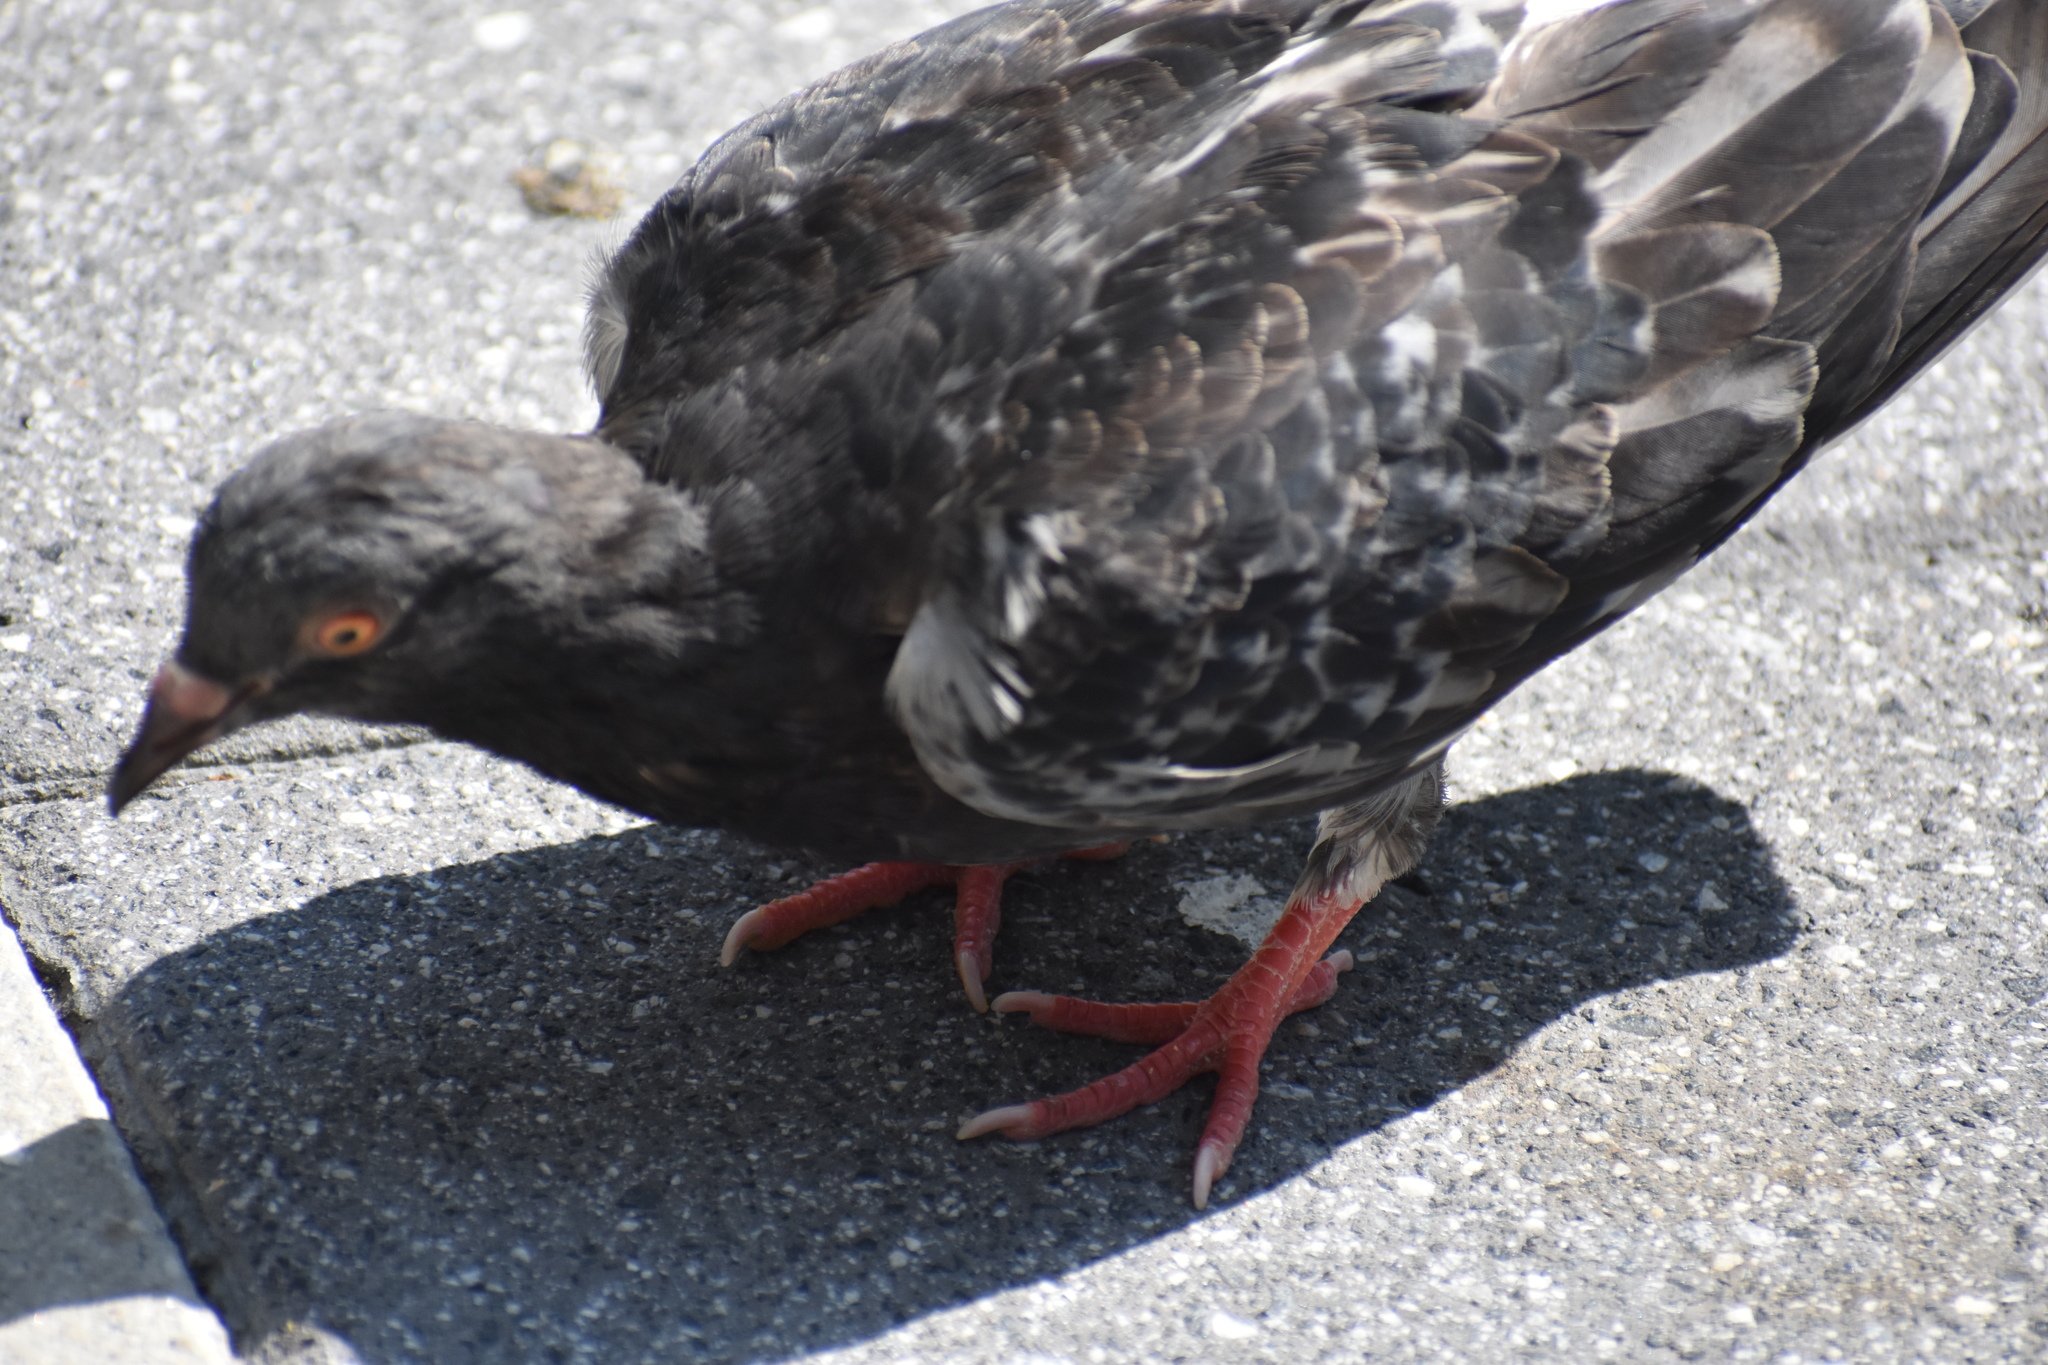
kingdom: Animalia
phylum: Chordata
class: Aves
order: Columbiformes
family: Columbidae
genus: Columba
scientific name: Columba livia
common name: Rock pigeon
